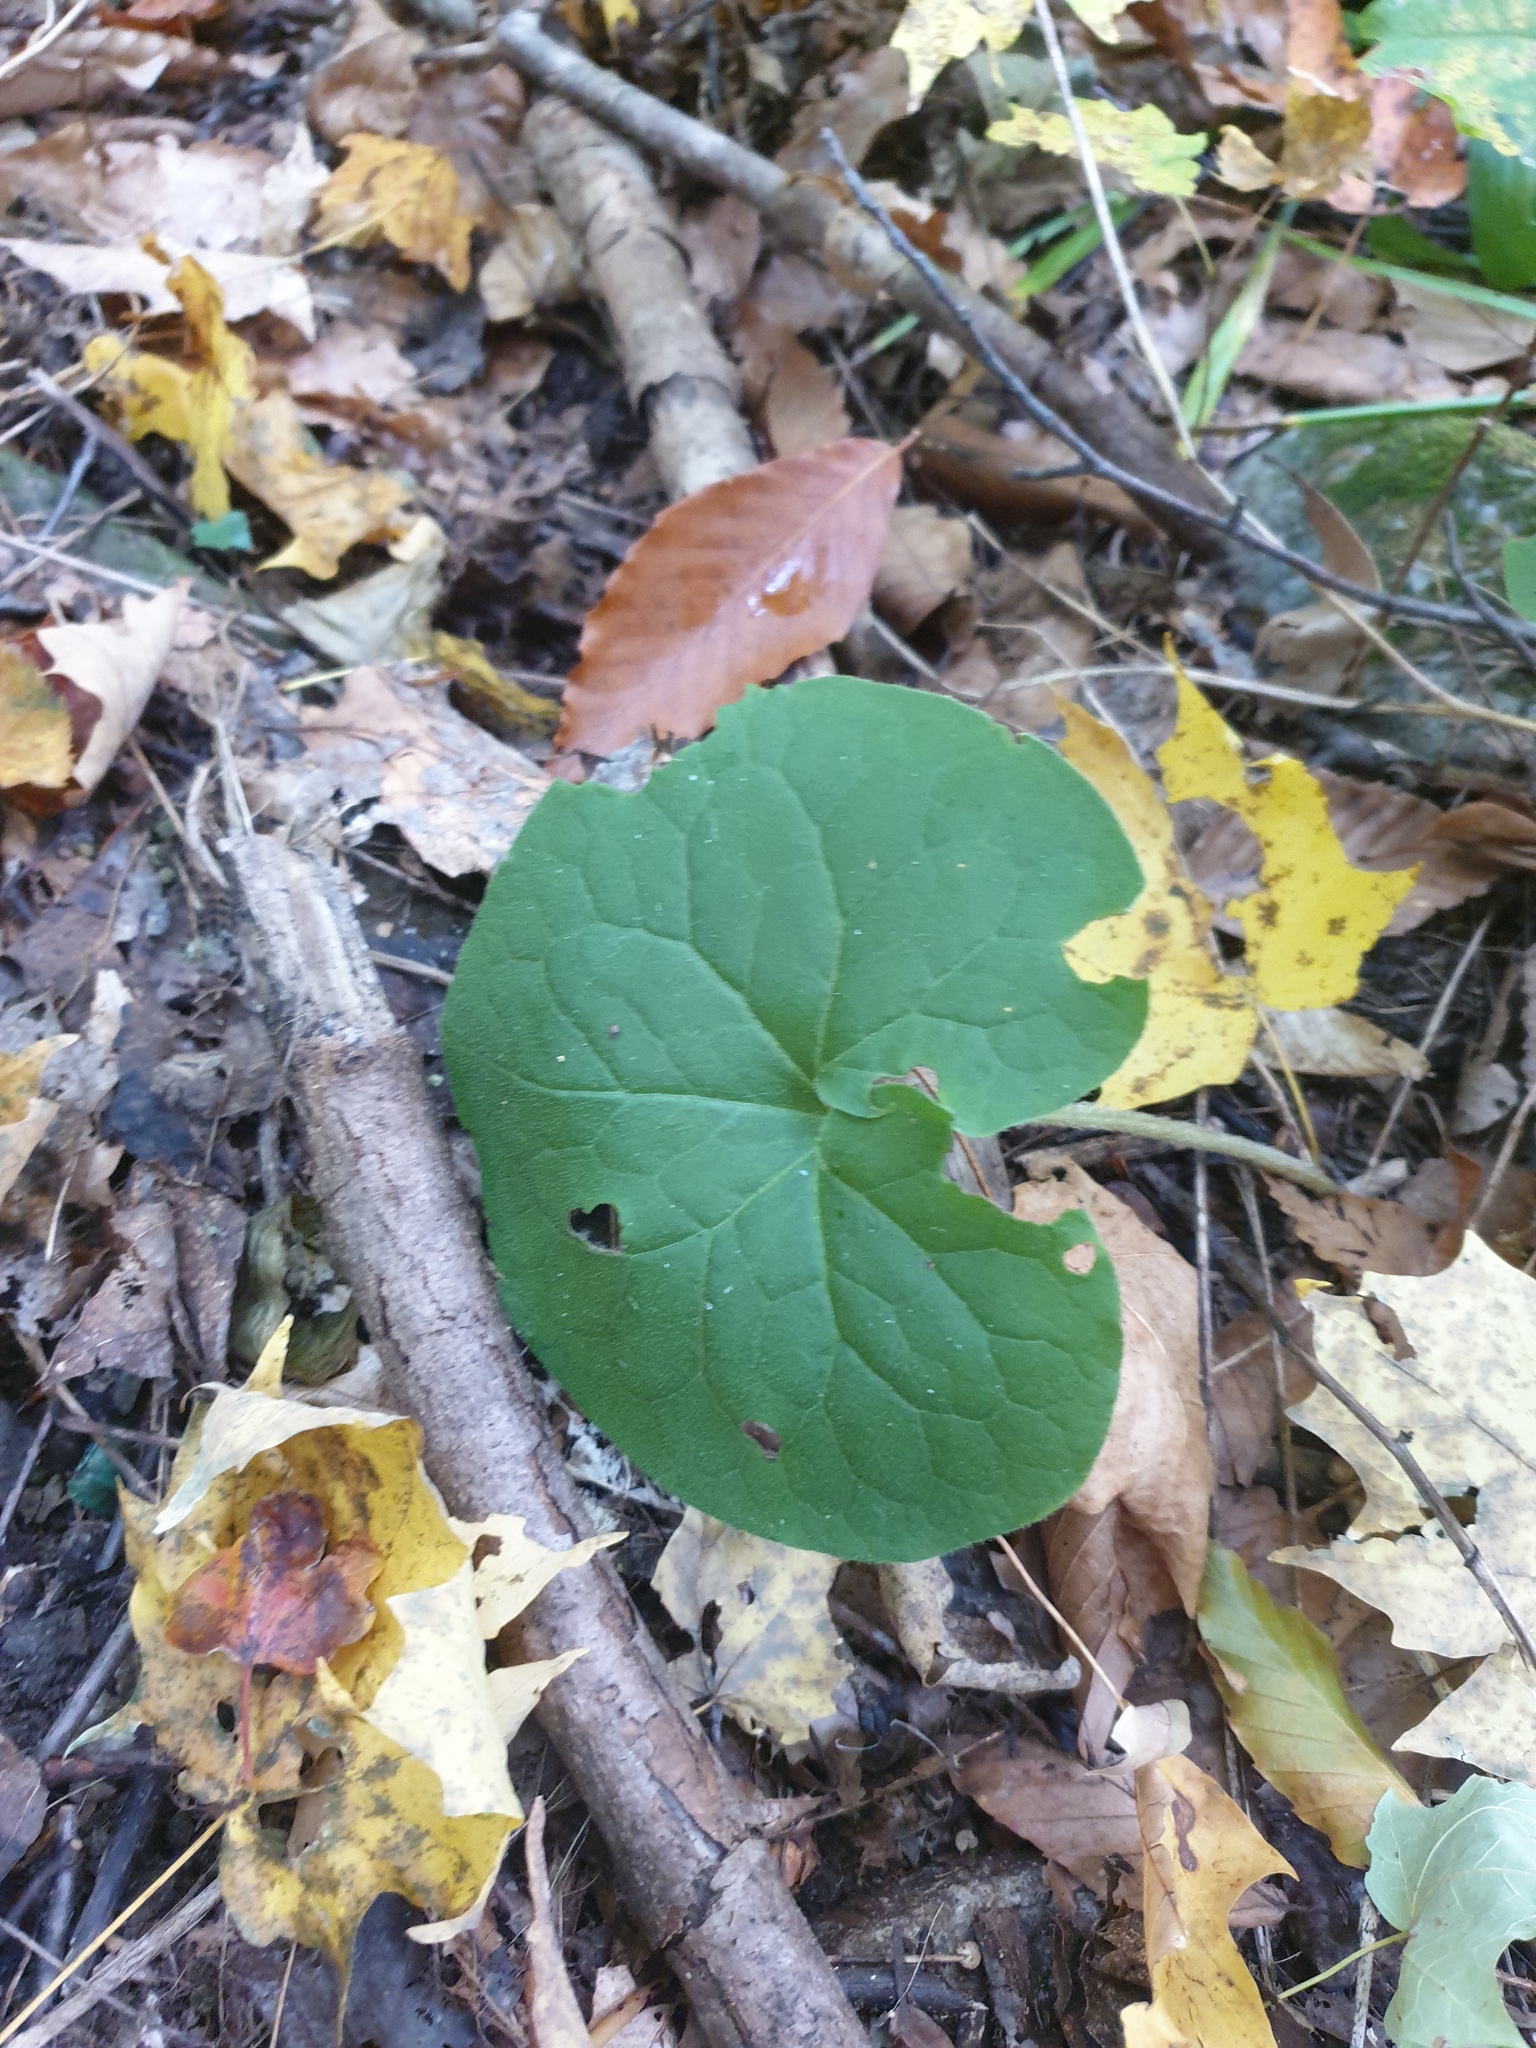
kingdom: Plantae
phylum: Tracheophyta
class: Magnoliopsida
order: Piperales
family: Aristolochiaceae
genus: Asarum
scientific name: Asarum canadense
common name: Wild ginger
